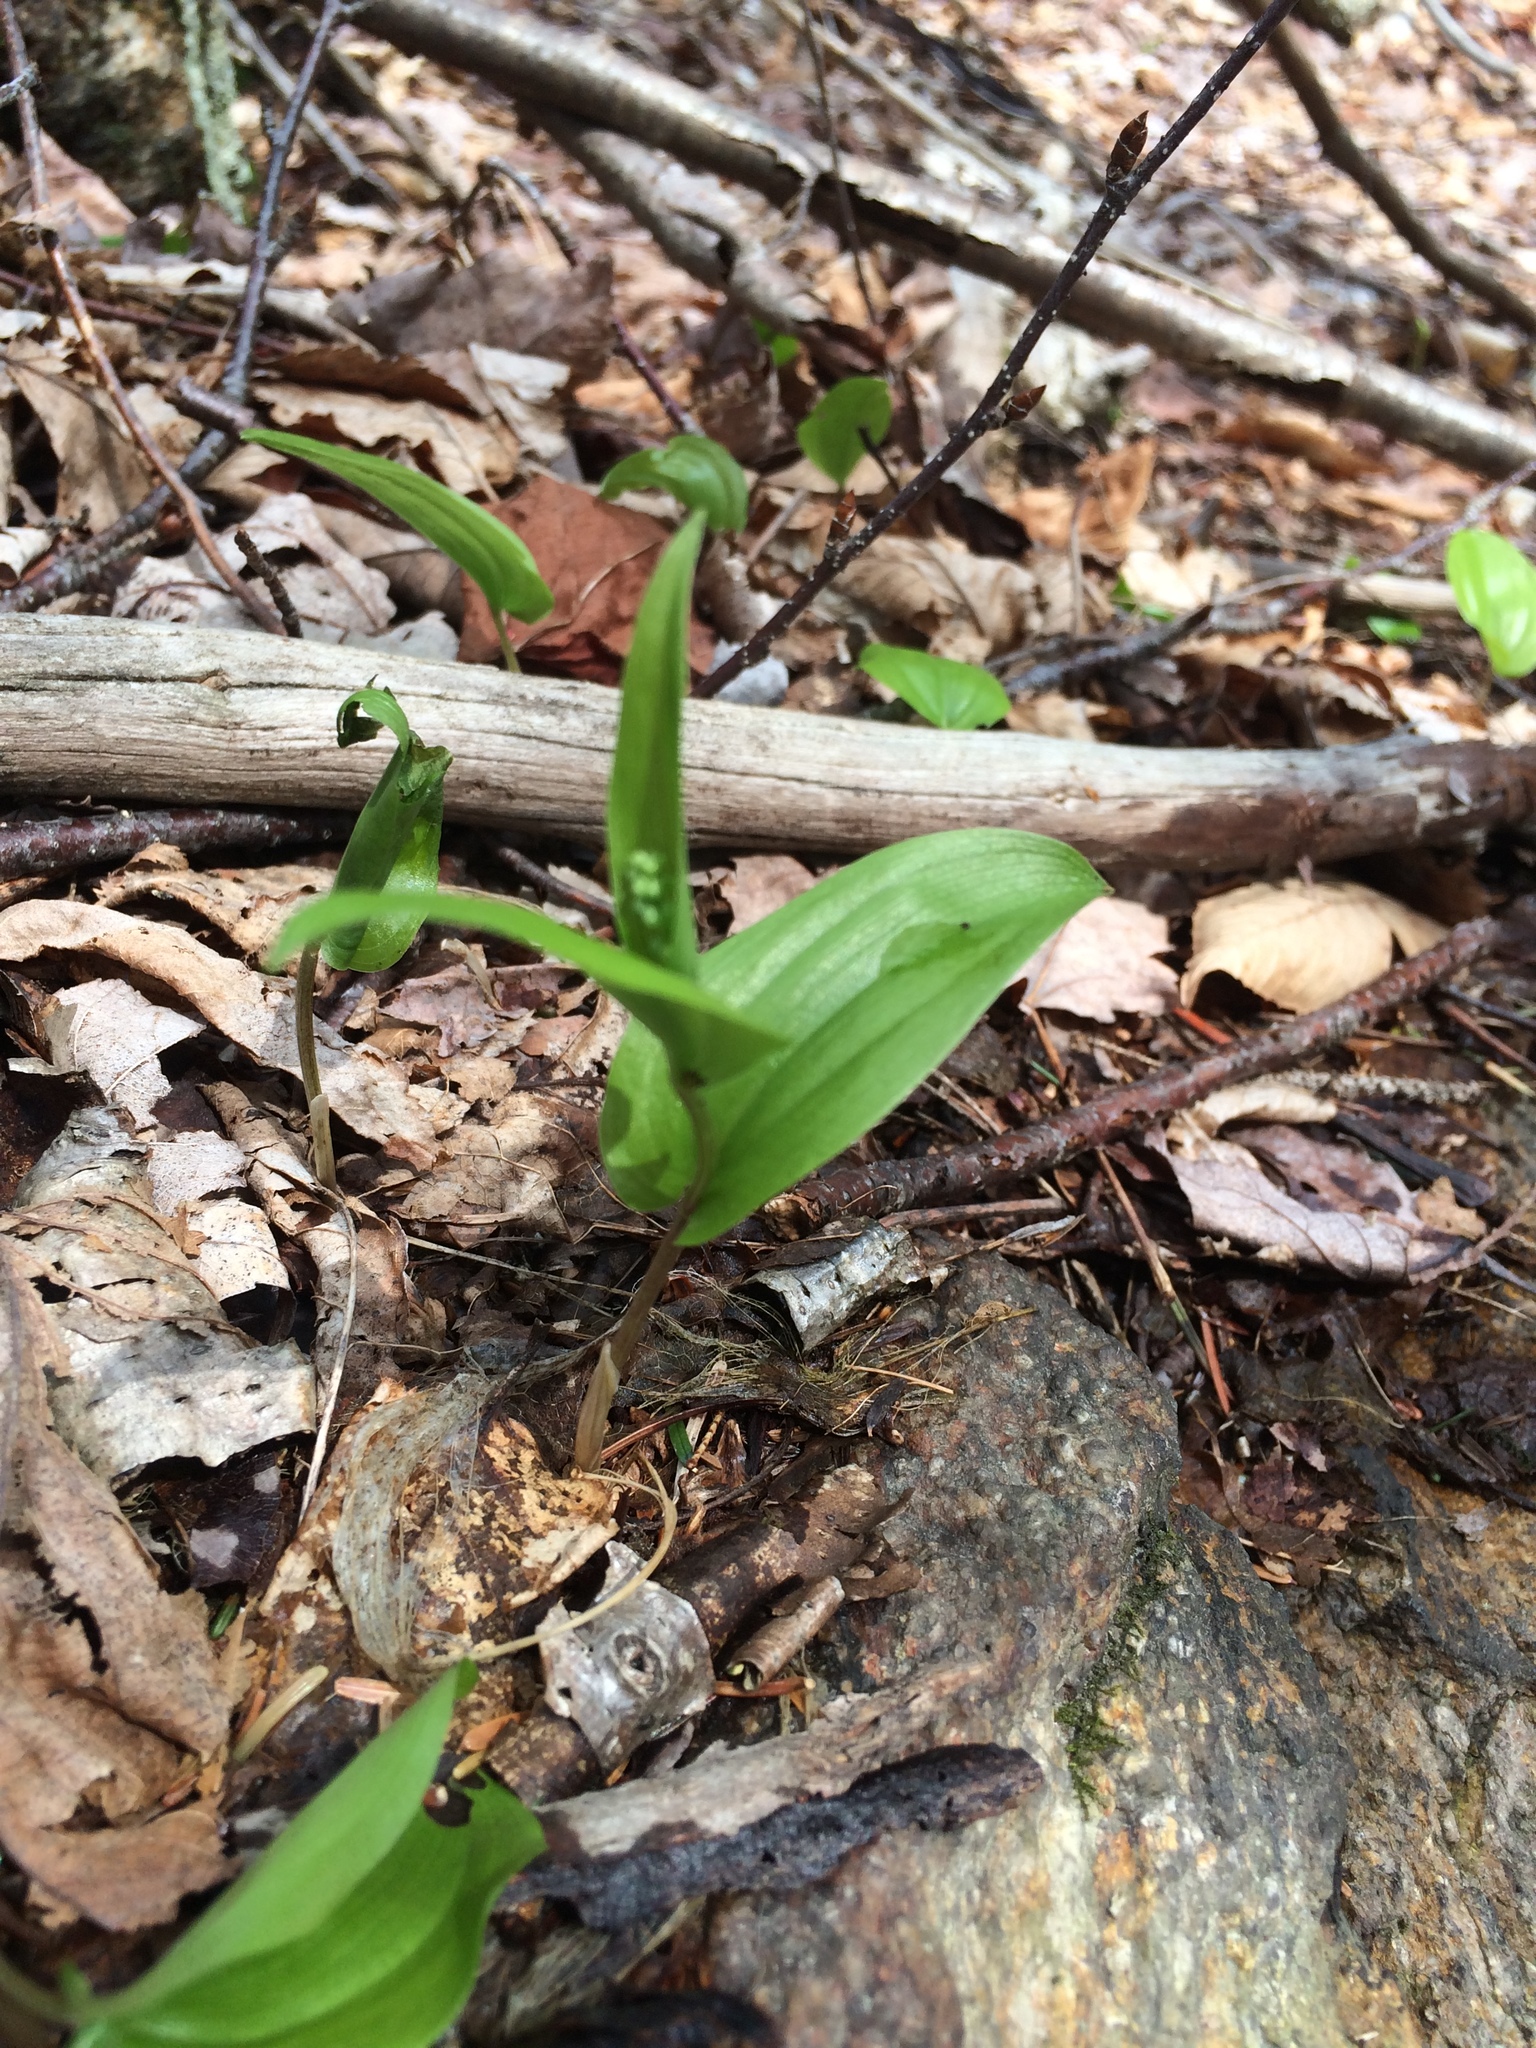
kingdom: Plantae
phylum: Tracheophyta
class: Liliopsida
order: Asparagales
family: Asparagaceae
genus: Maianthemum
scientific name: Maianthemum canadense
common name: False lily-of-the-valley
